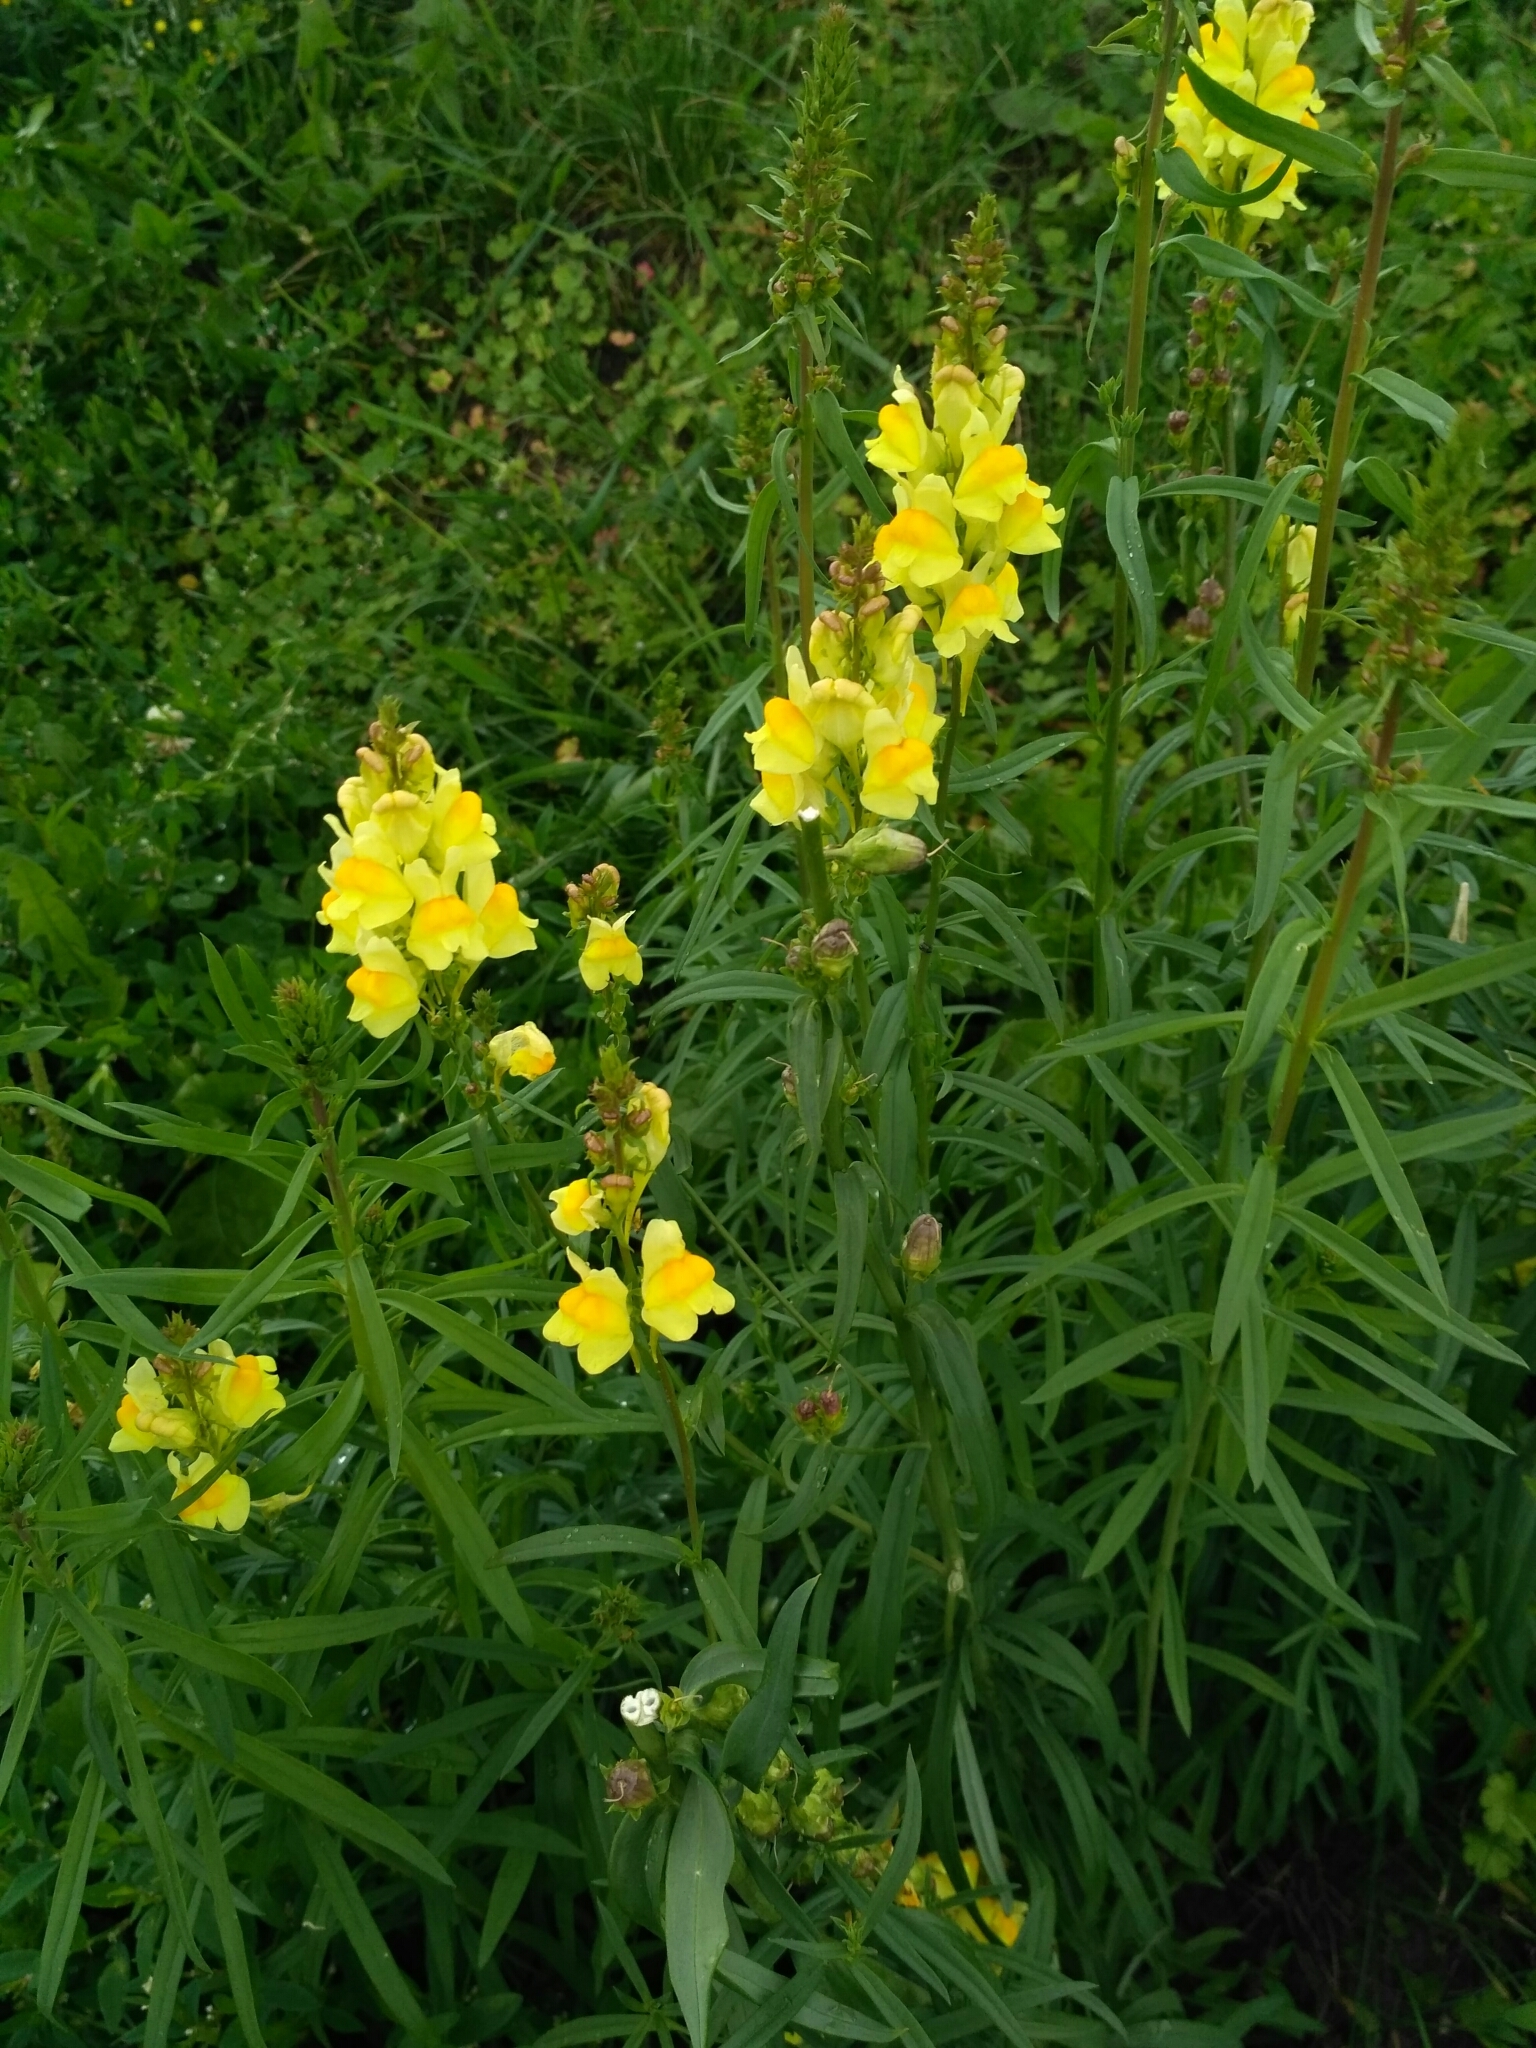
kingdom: Plantae
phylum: Tracheophyta
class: Magnoliopsida
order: Lamiales
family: Plantaginaceae
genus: Linaria
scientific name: Linaria vulgaris
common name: Butter and eggs
